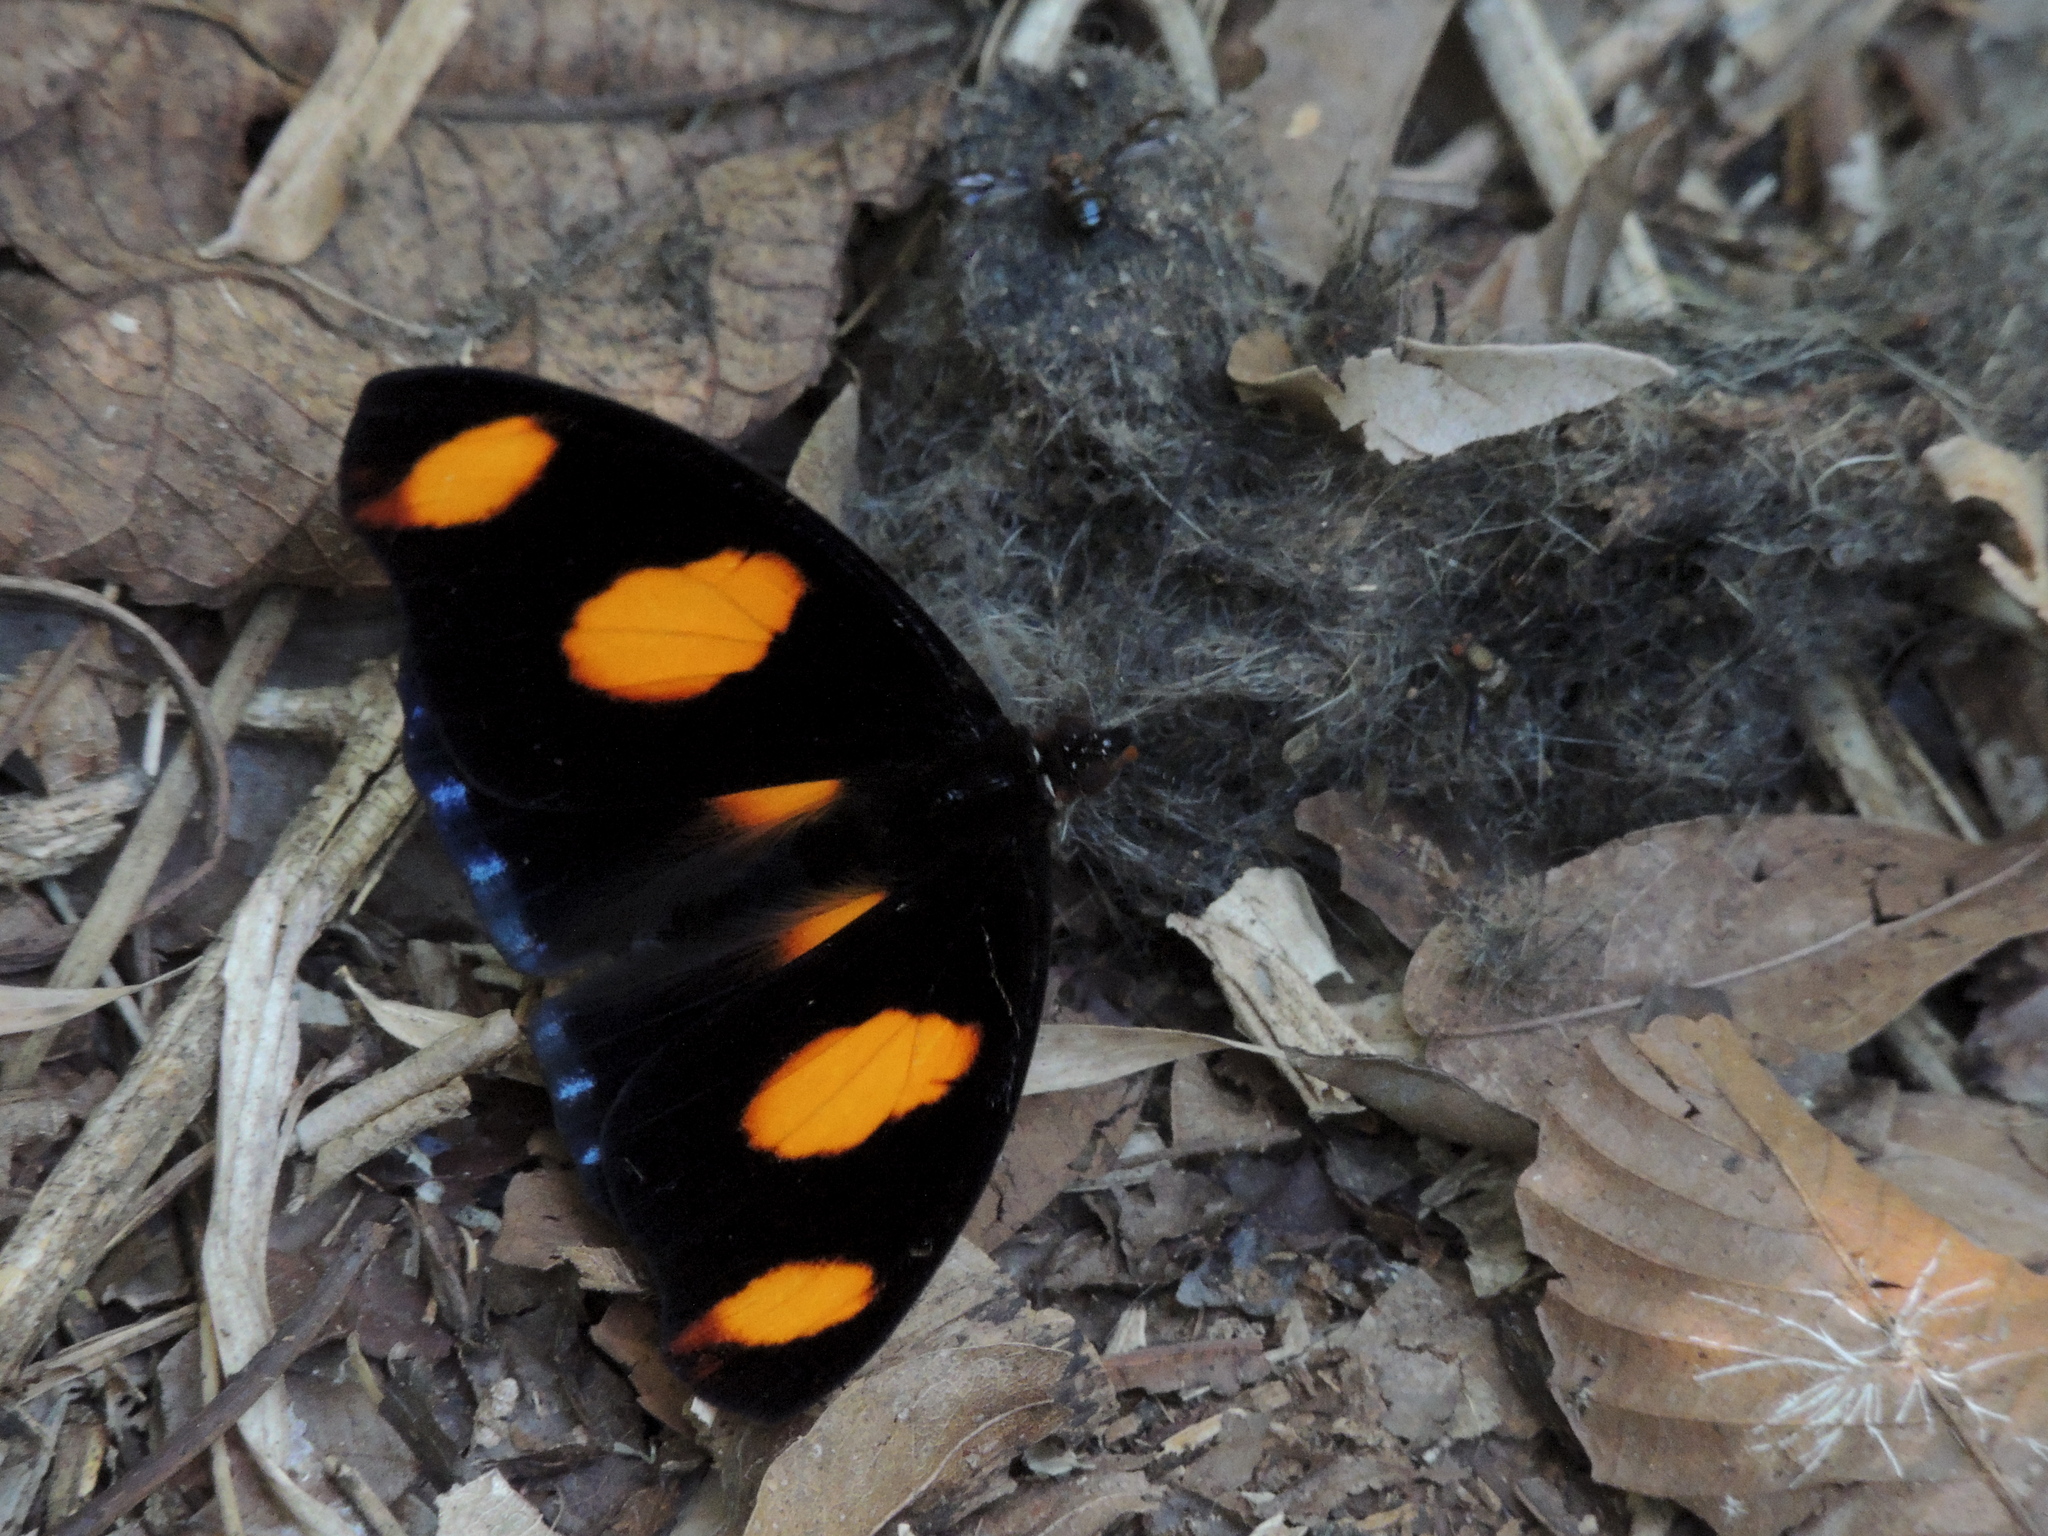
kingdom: Animalia
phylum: Arthropoda
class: Insecta
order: Lepidoptera
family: Nymphalidae
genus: Catonephele
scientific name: Catonephele numilia
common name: Blue-frosted banner
